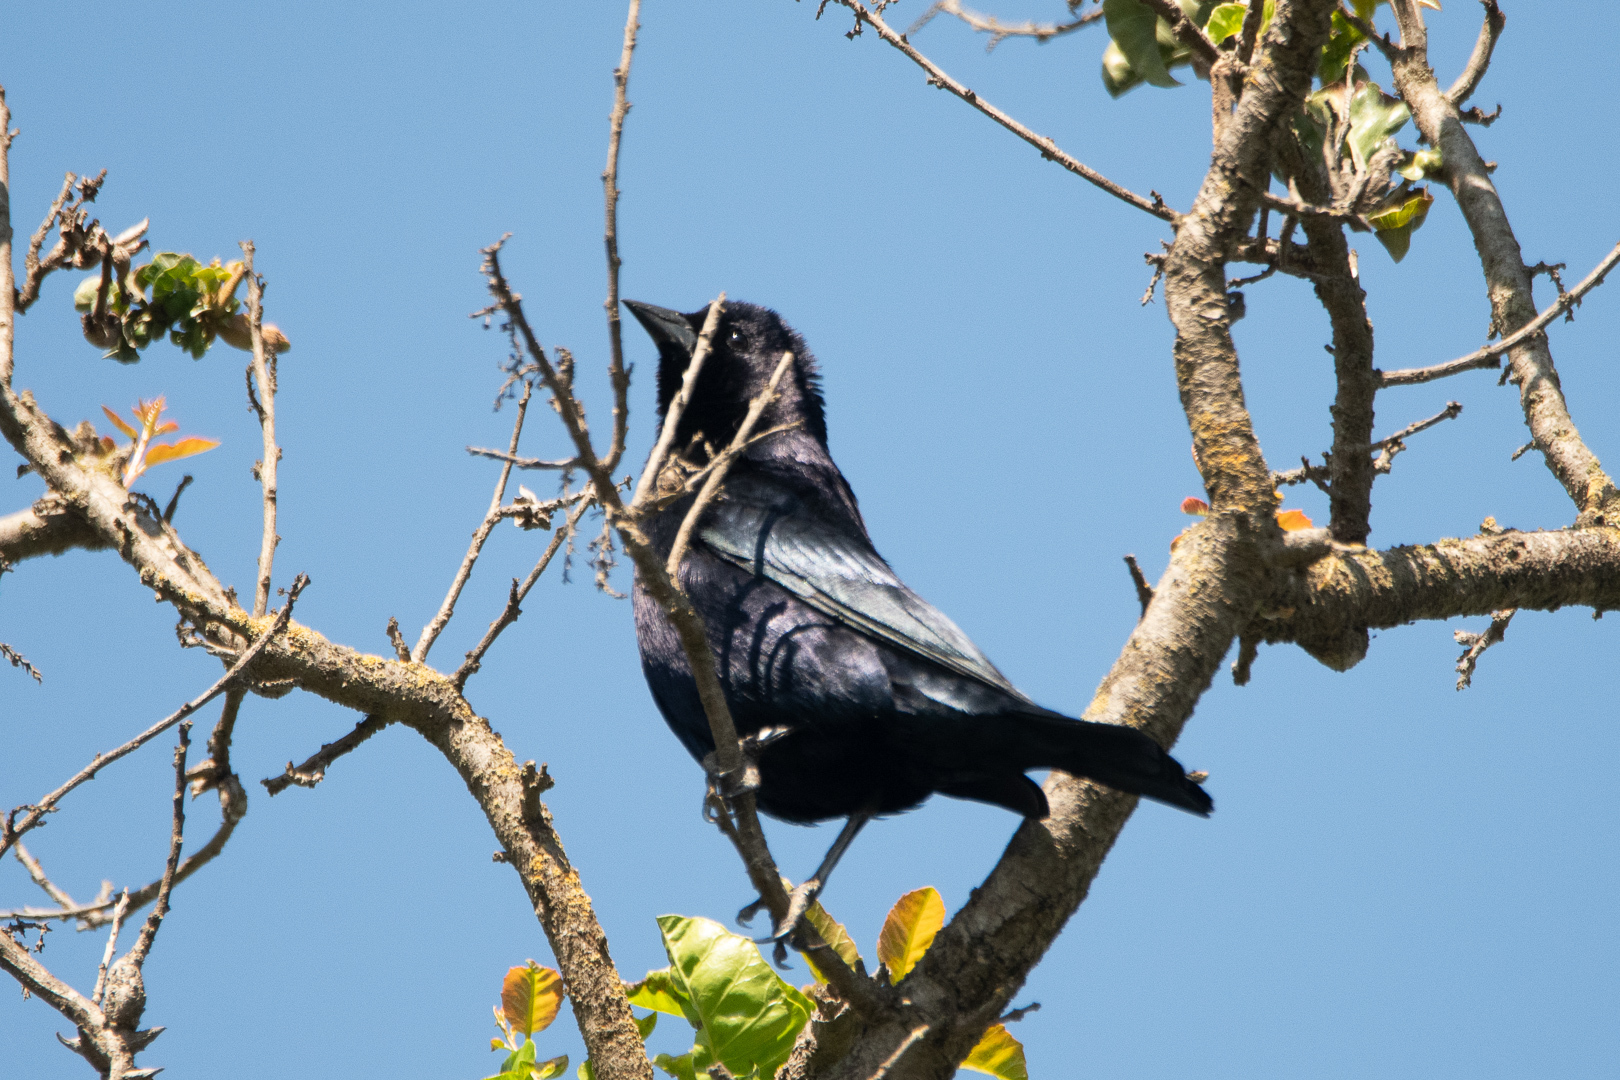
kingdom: Animalia
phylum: Chordata
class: Aves
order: Passeriformes
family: Icteridae
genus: Molothrus
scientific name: Molothrus bonariensis
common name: Shiny cowbird
